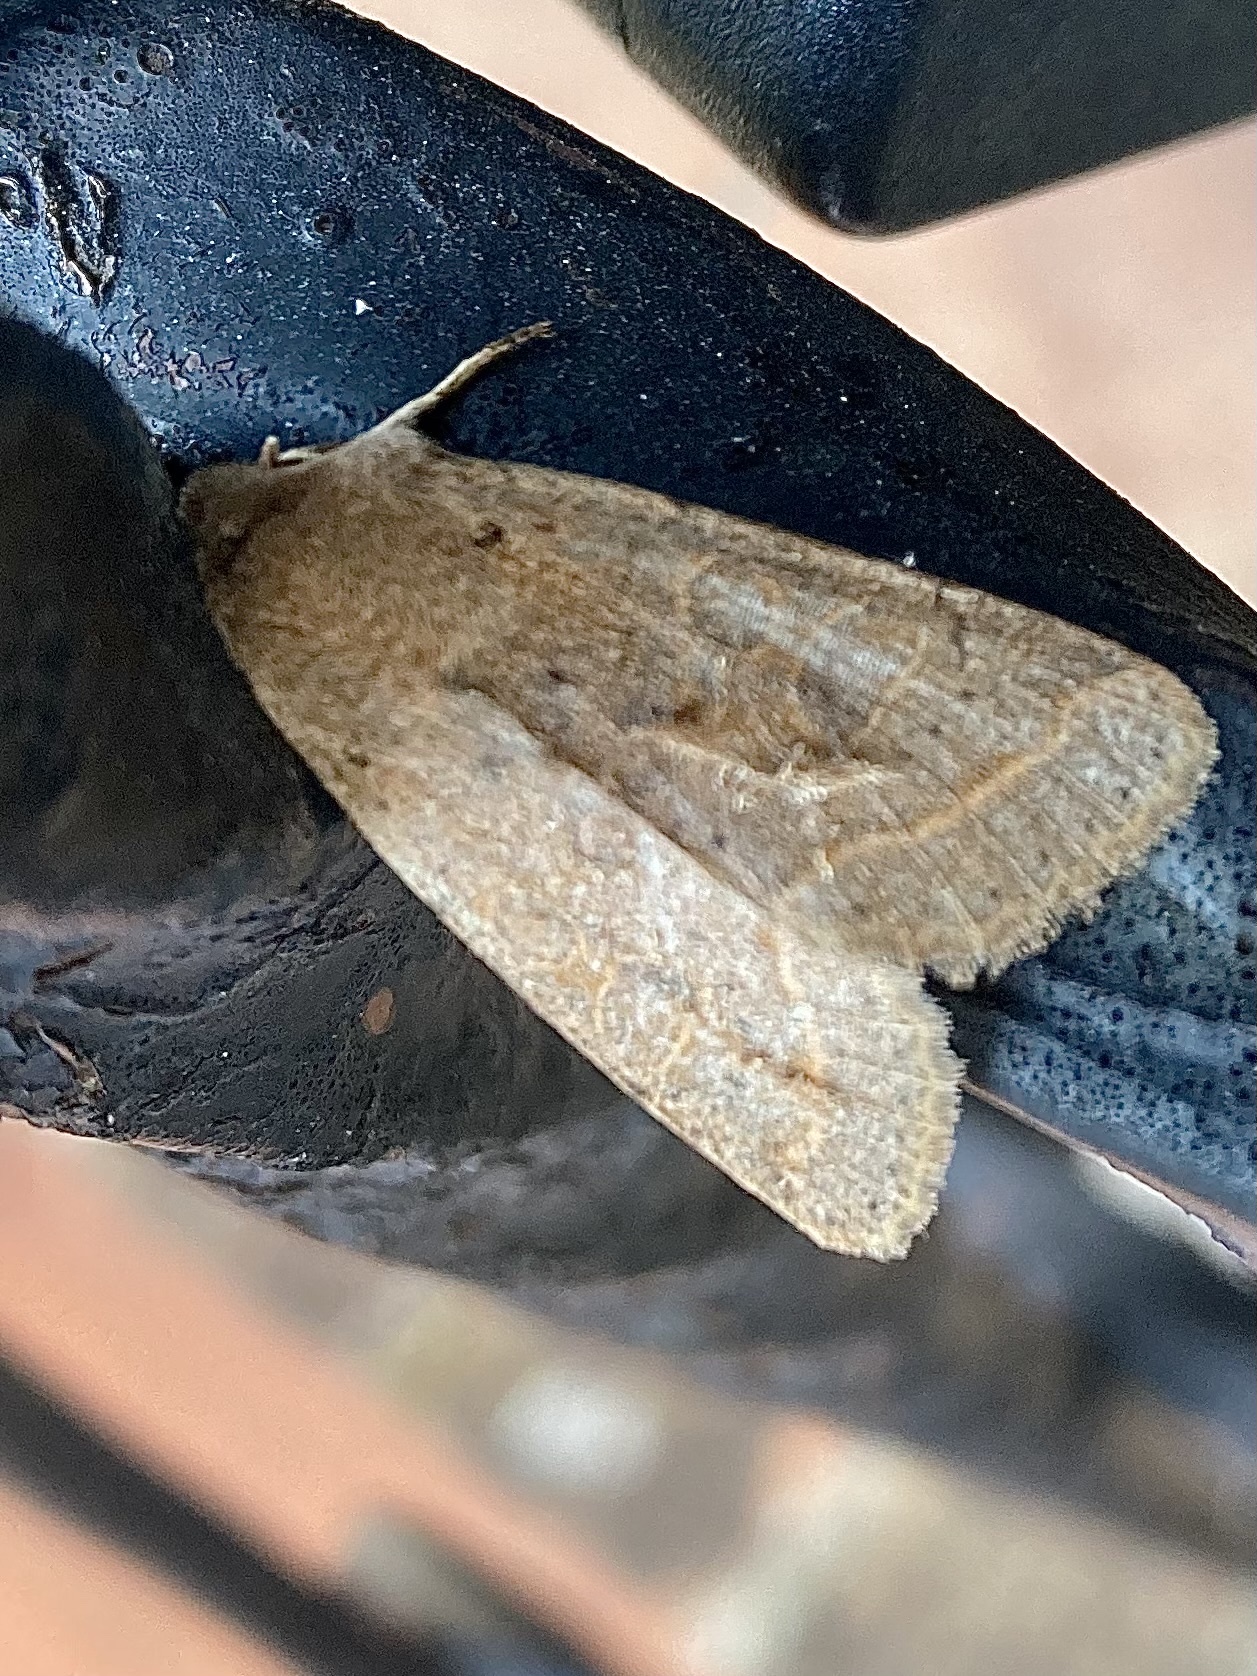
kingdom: Animalia
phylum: Arthropoda
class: Insecta
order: Lepidoptera
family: Noctuidae
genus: Orthosia
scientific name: Orthosia cerasi
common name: Common quaker
